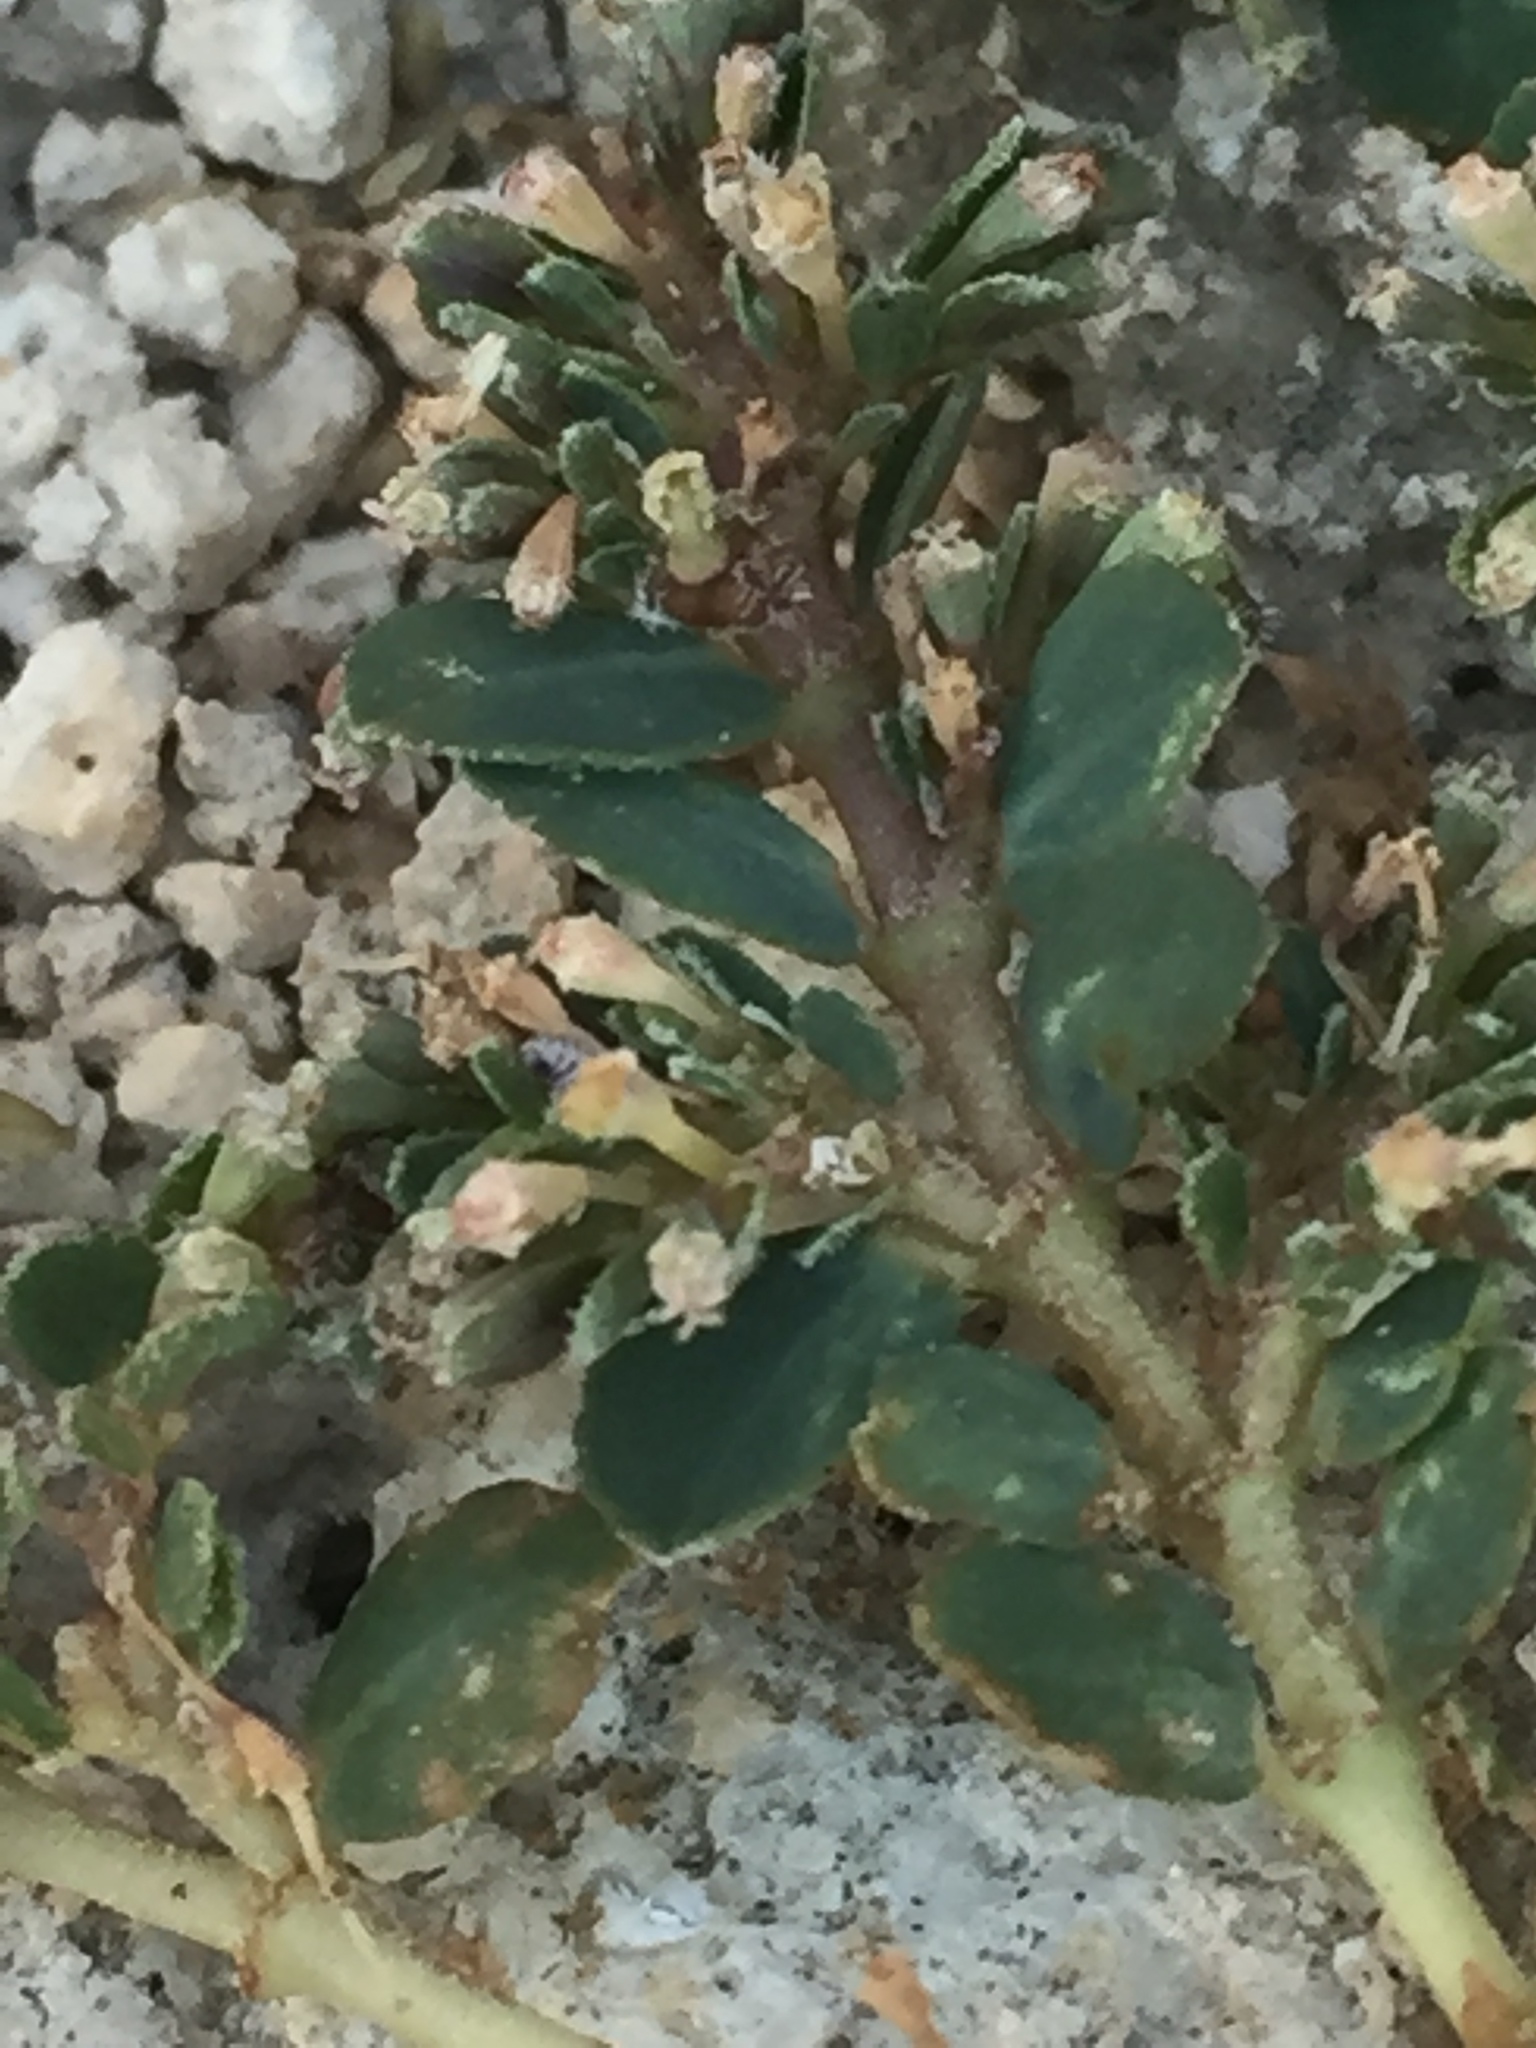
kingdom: Plantae
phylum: Tracheophyta
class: Magnoliopsida
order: Malpighiales
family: Euphorbiaceae
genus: Euphorbia
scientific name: Euphorbia prostrata
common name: Prostrate sandmat
